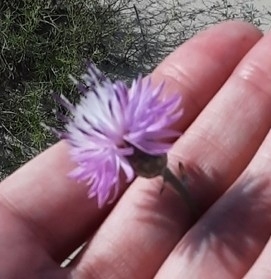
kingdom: Plantae
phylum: Tracheophyta
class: Magnoliopsida
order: Asterales
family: Asteraceae
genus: Centaurea
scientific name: Centaurea arenaria
